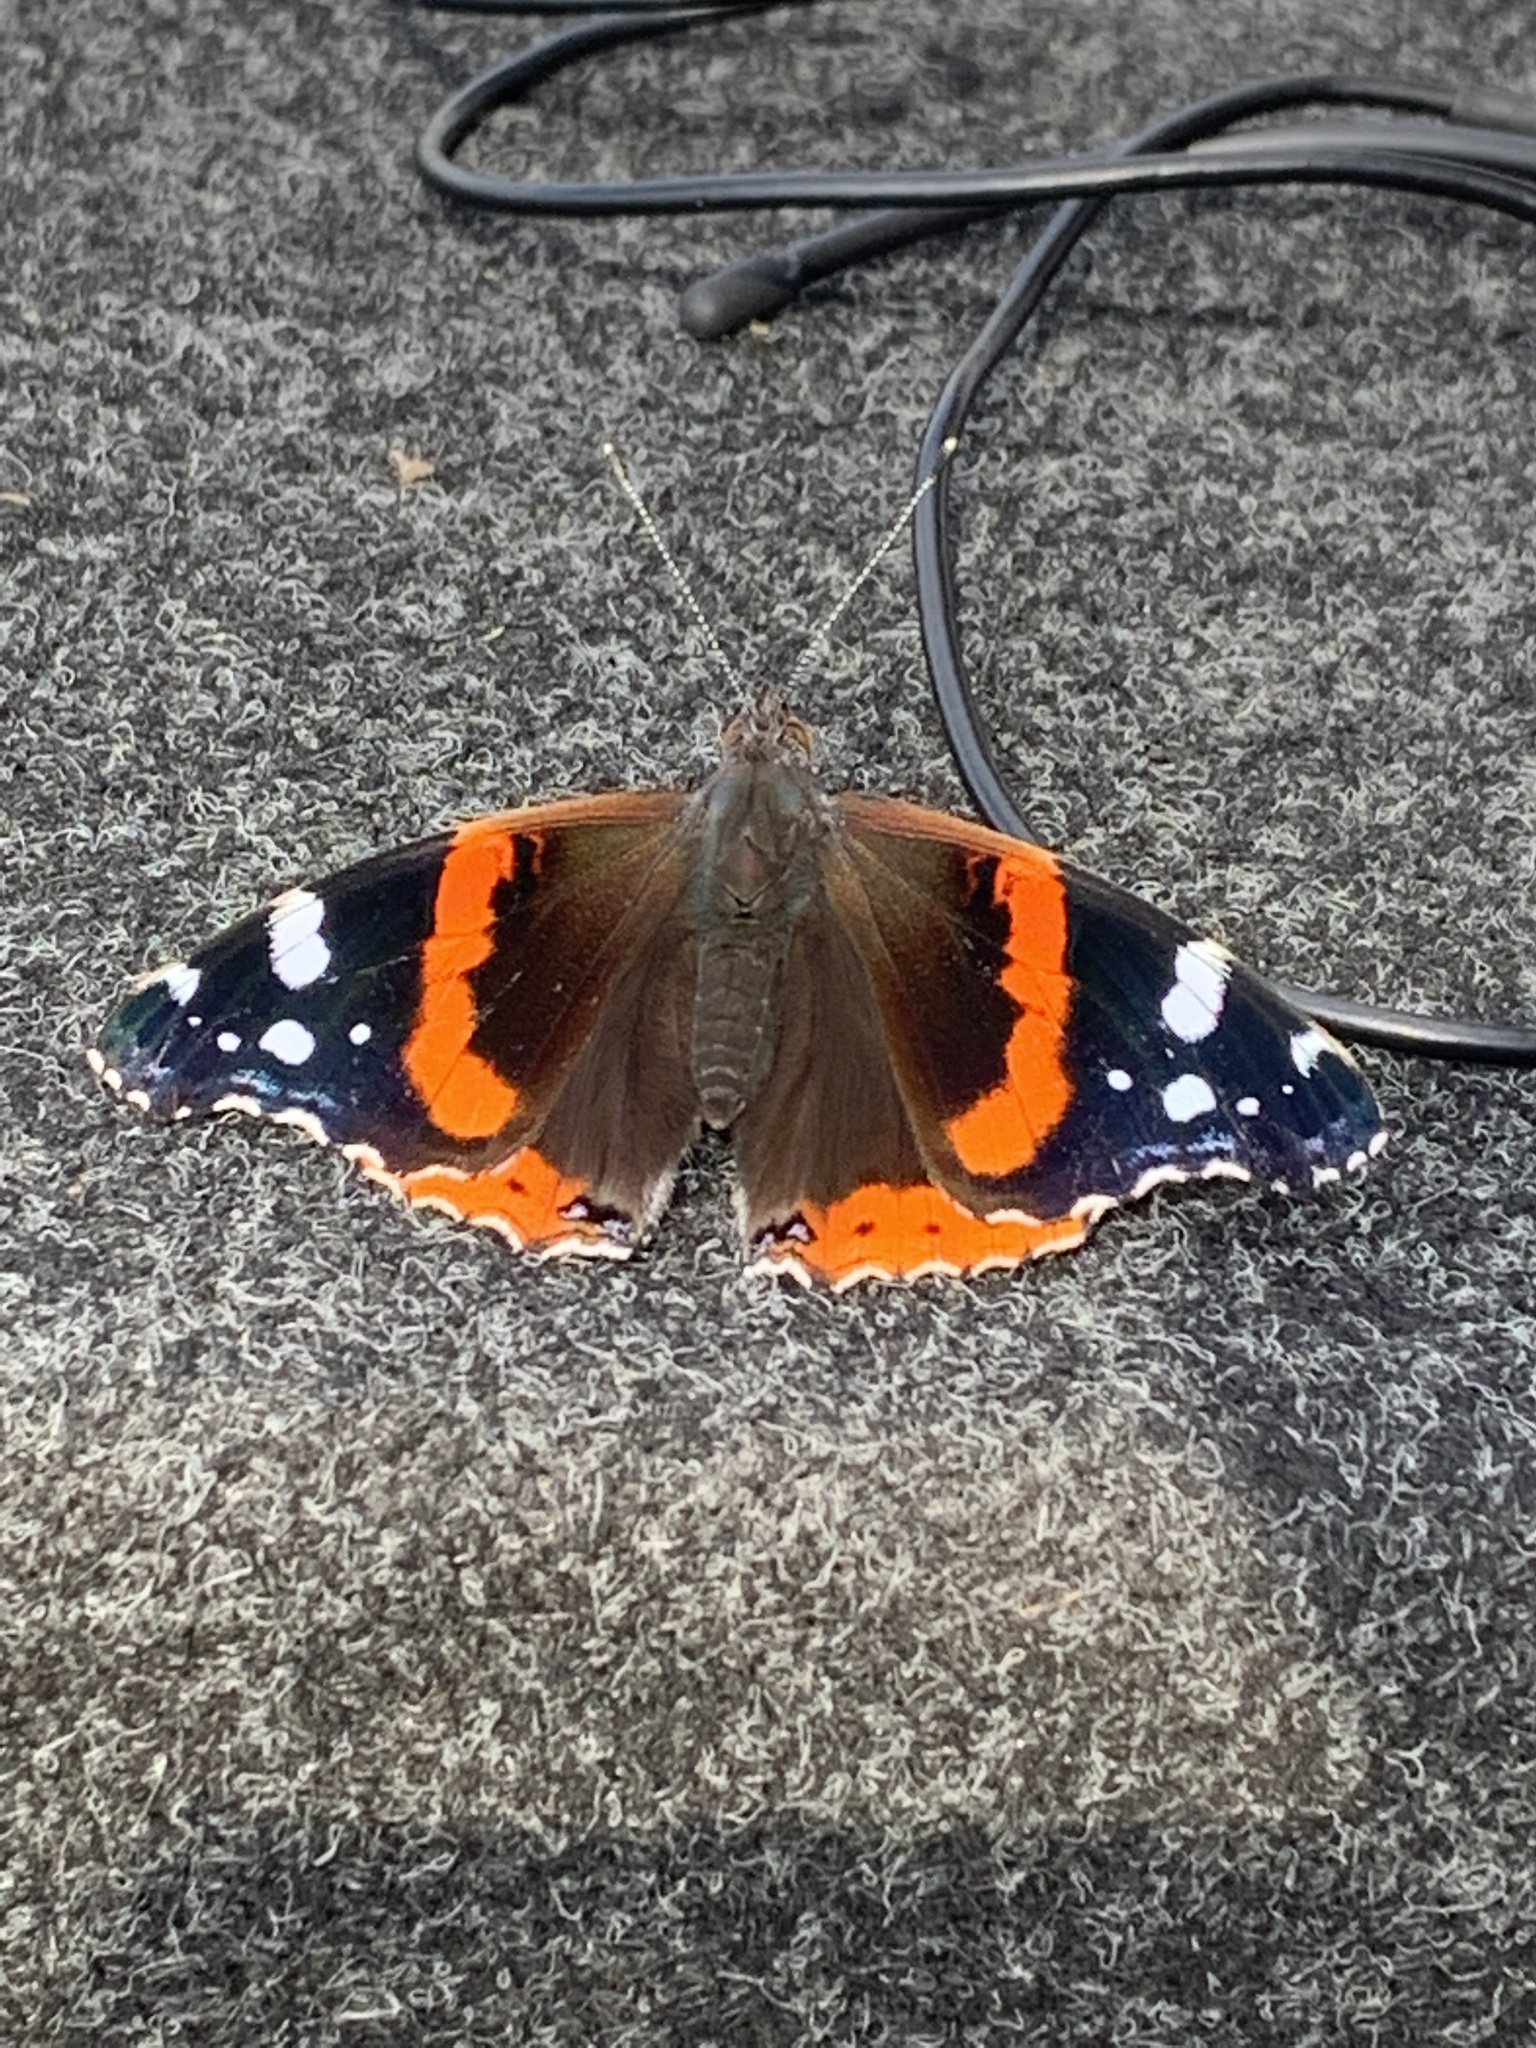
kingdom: Animalia
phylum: Arthropoda
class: Insecta
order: Lepidoptera
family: Nymphalidae
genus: Vanessa
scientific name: Vanessa atalanta
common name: Red admiral
